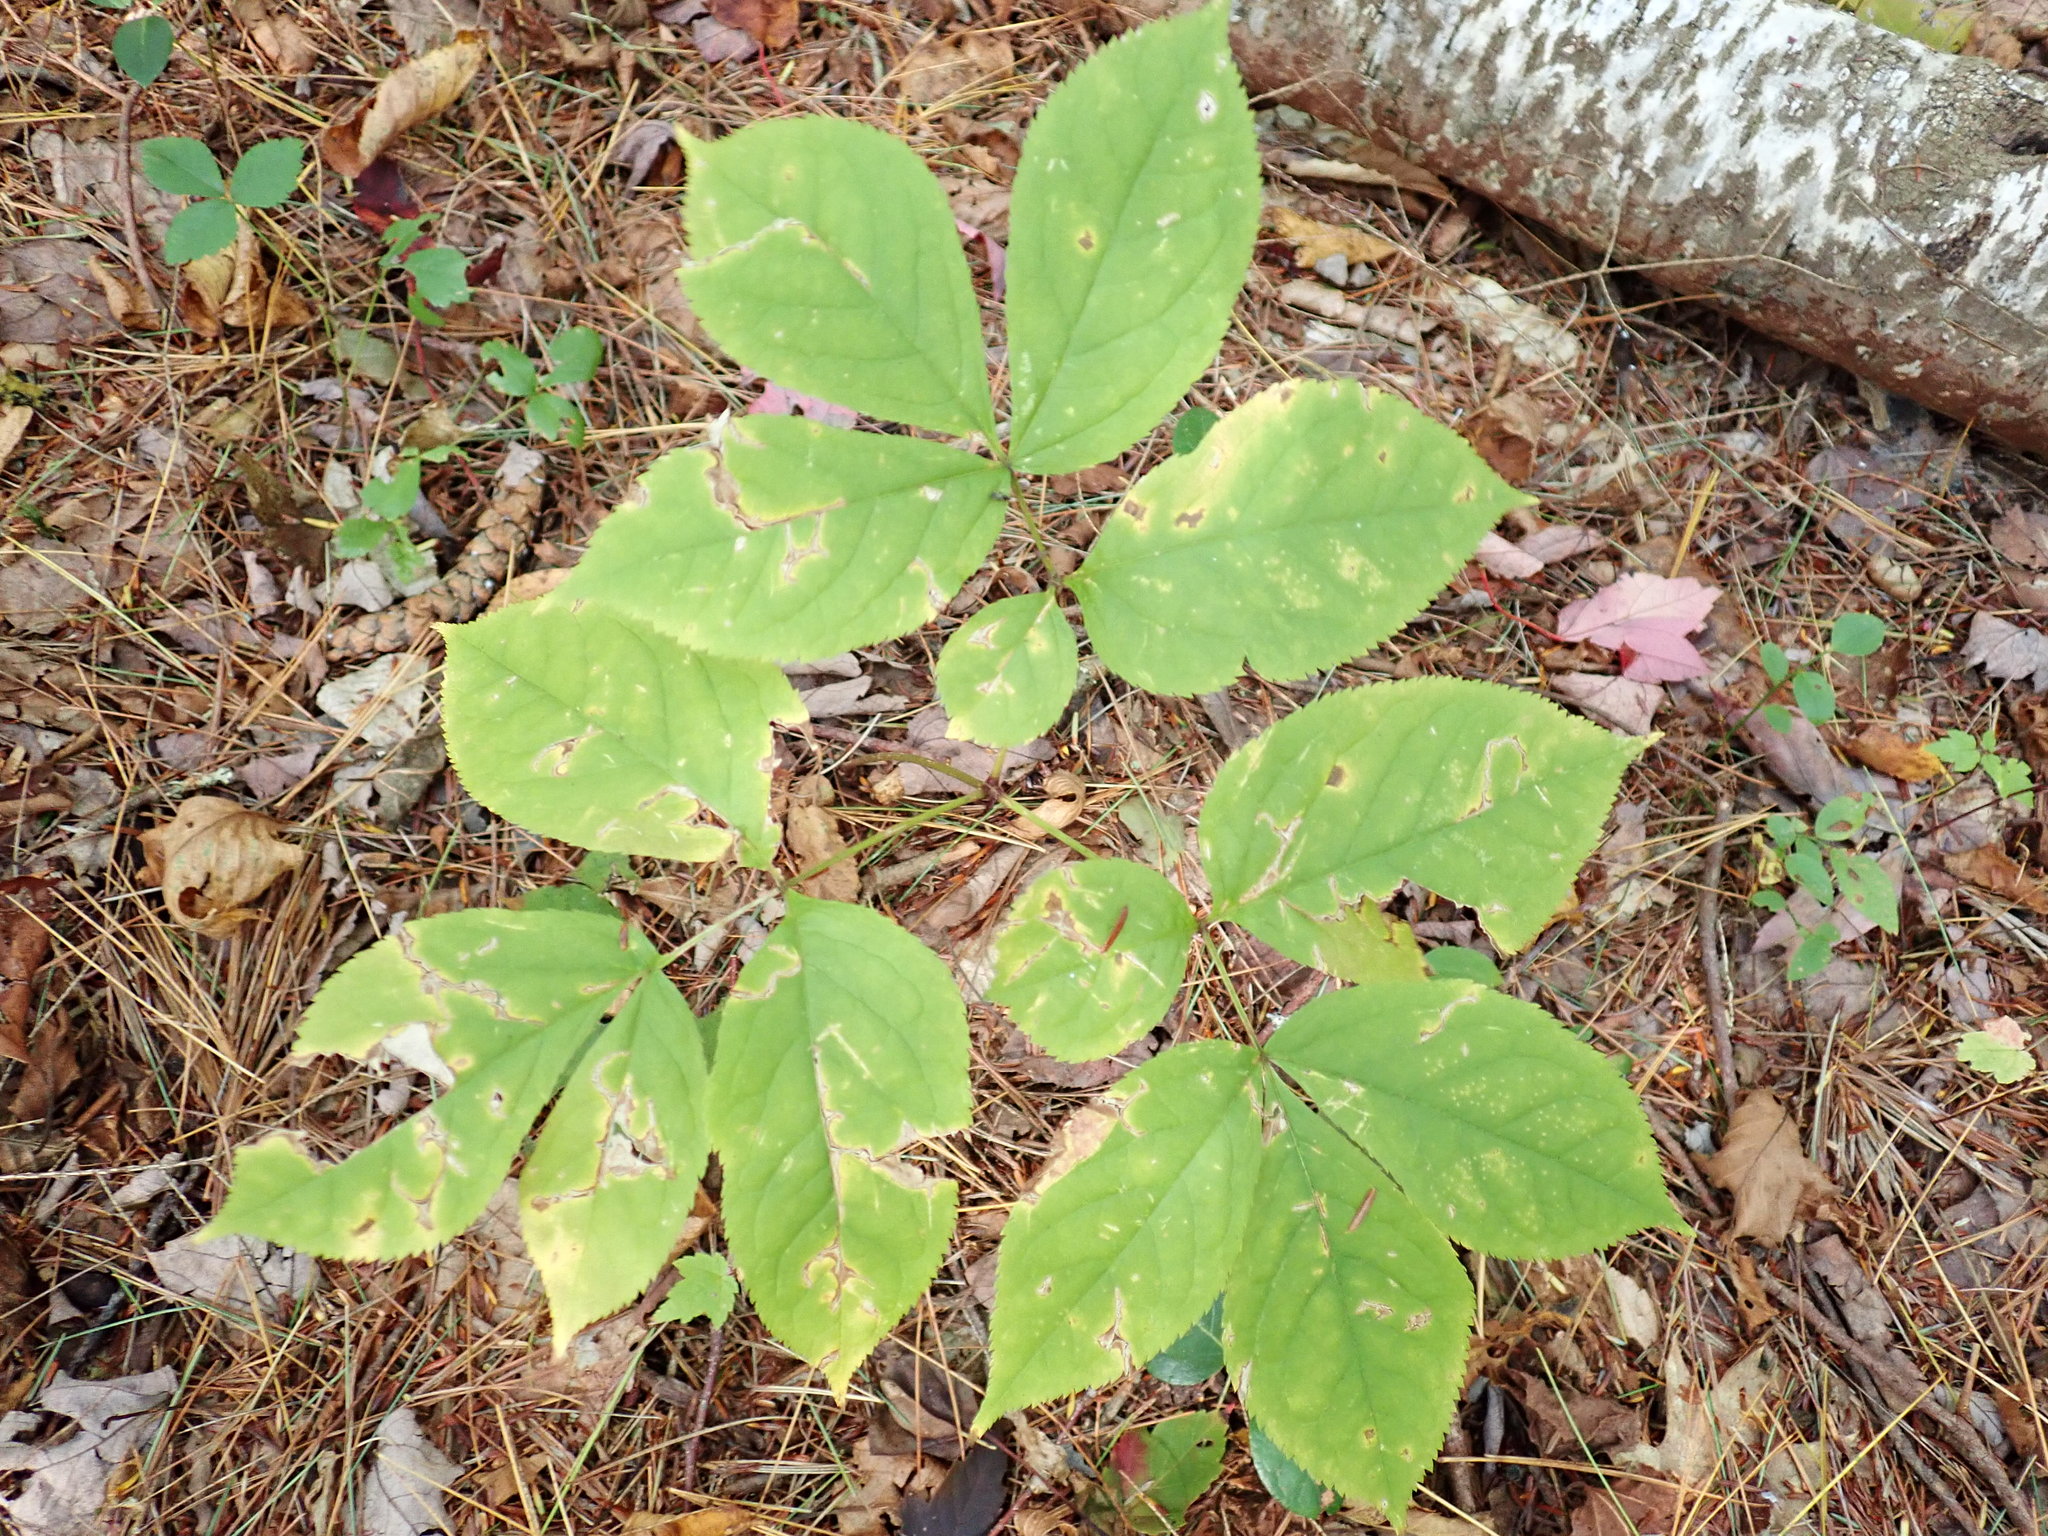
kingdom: Plantae
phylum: Tracheophyta
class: Magnoliopsida
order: Apiales
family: Araliaceae
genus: Aralia
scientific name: Aralia nudicaulis
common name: Wild sarsaparilla
